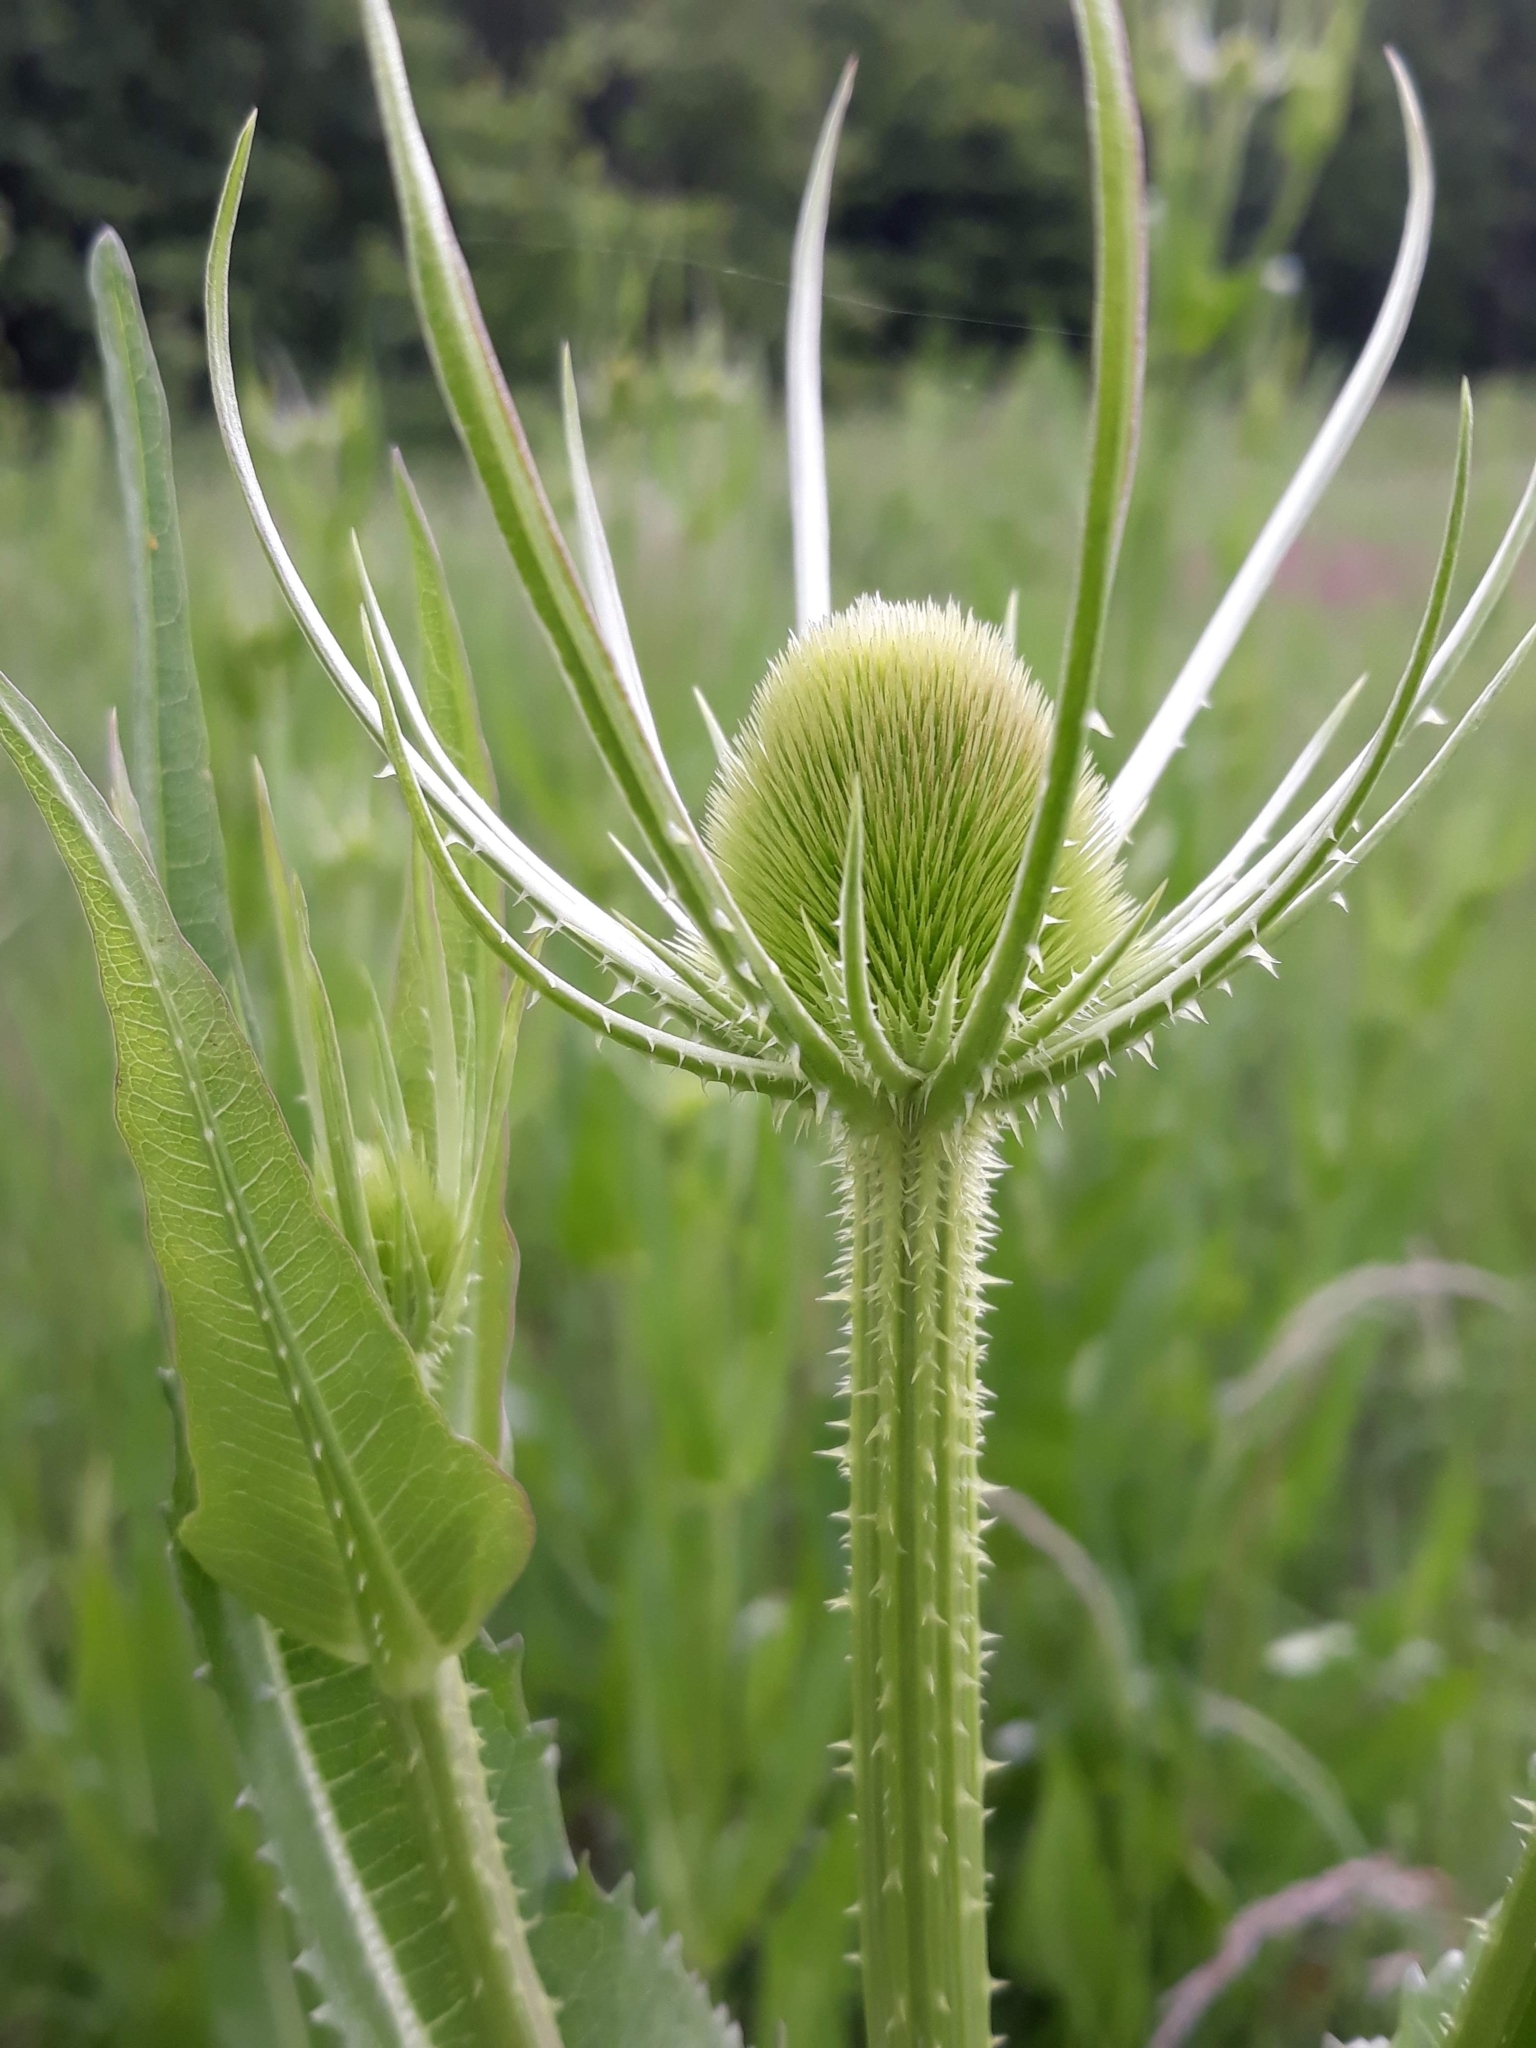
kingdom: Plantae
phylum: Tracheophyta
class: Magnoliopsida
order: Dipsacales
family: Caprifoliaceae
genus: Dipsacus
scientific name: Dipsacus fullonum
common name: Teasel
